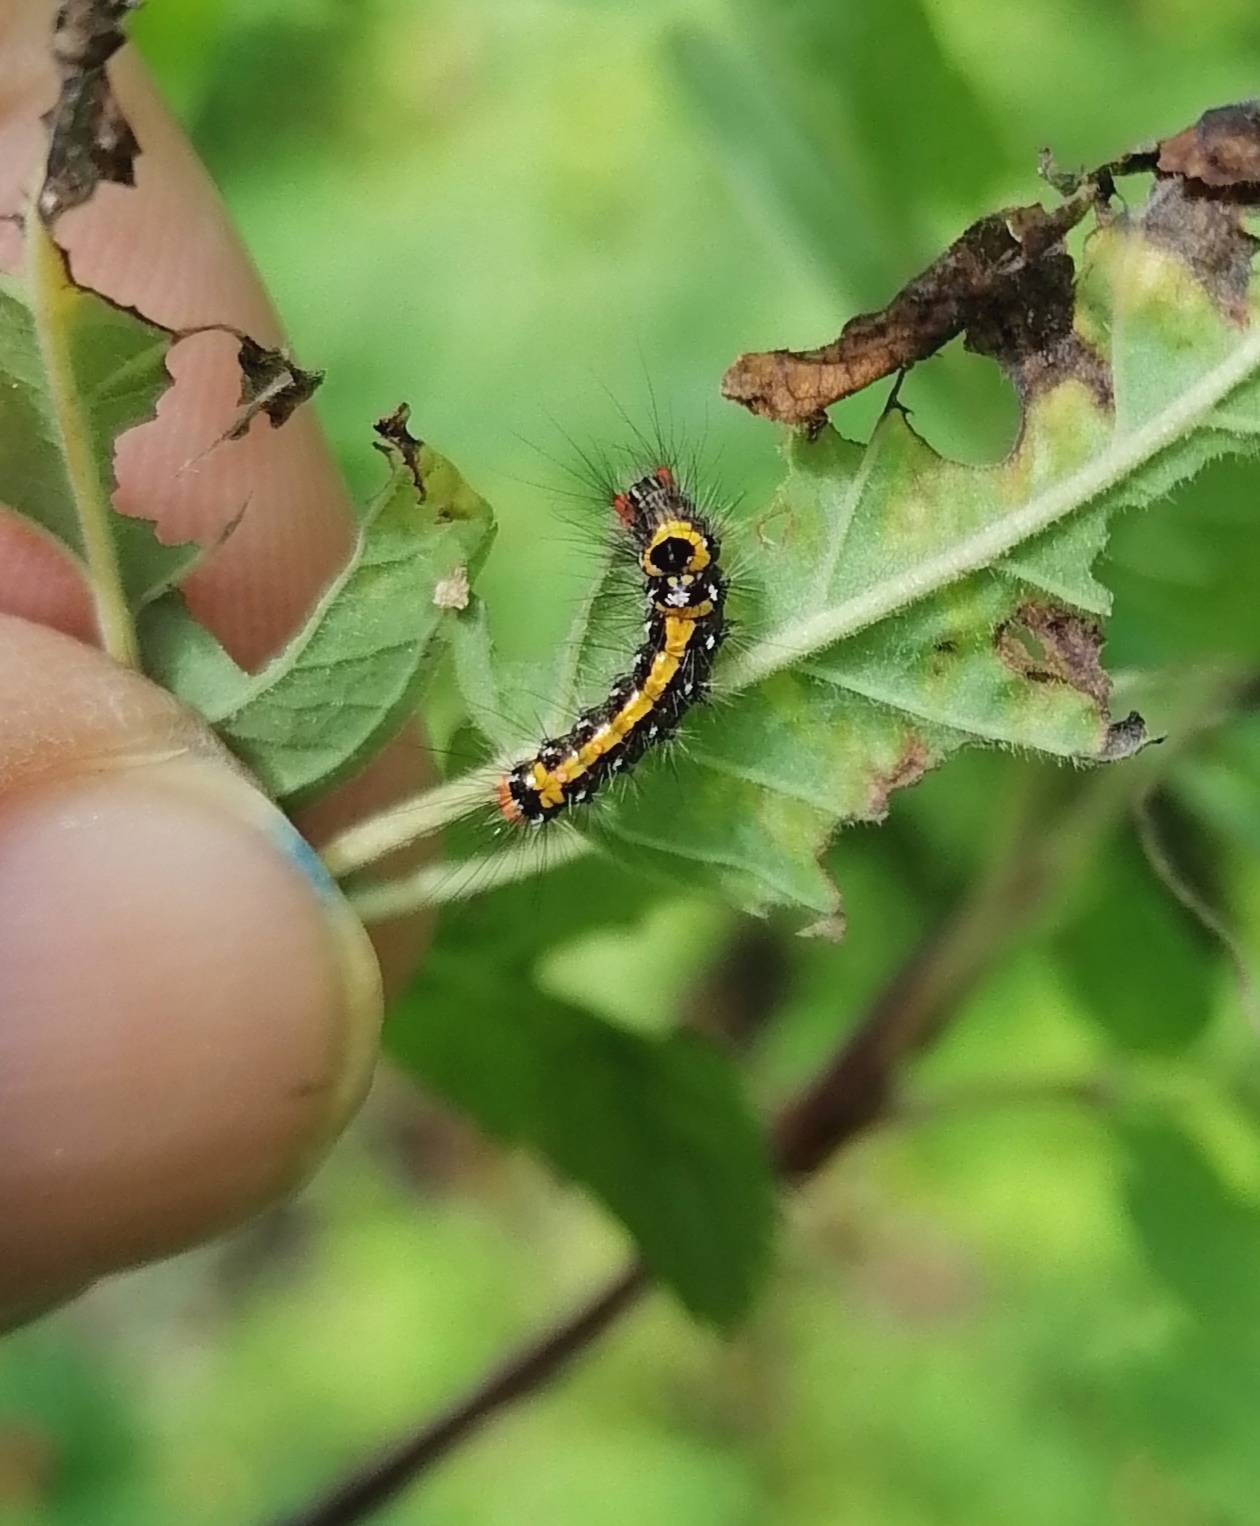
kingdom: Animalia
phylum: Arthropoda
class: Insecta
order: Lepidoptera
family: Erebidae
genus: Sphrageidus
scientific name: Sphrageidus similis
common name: Yellow-tail
